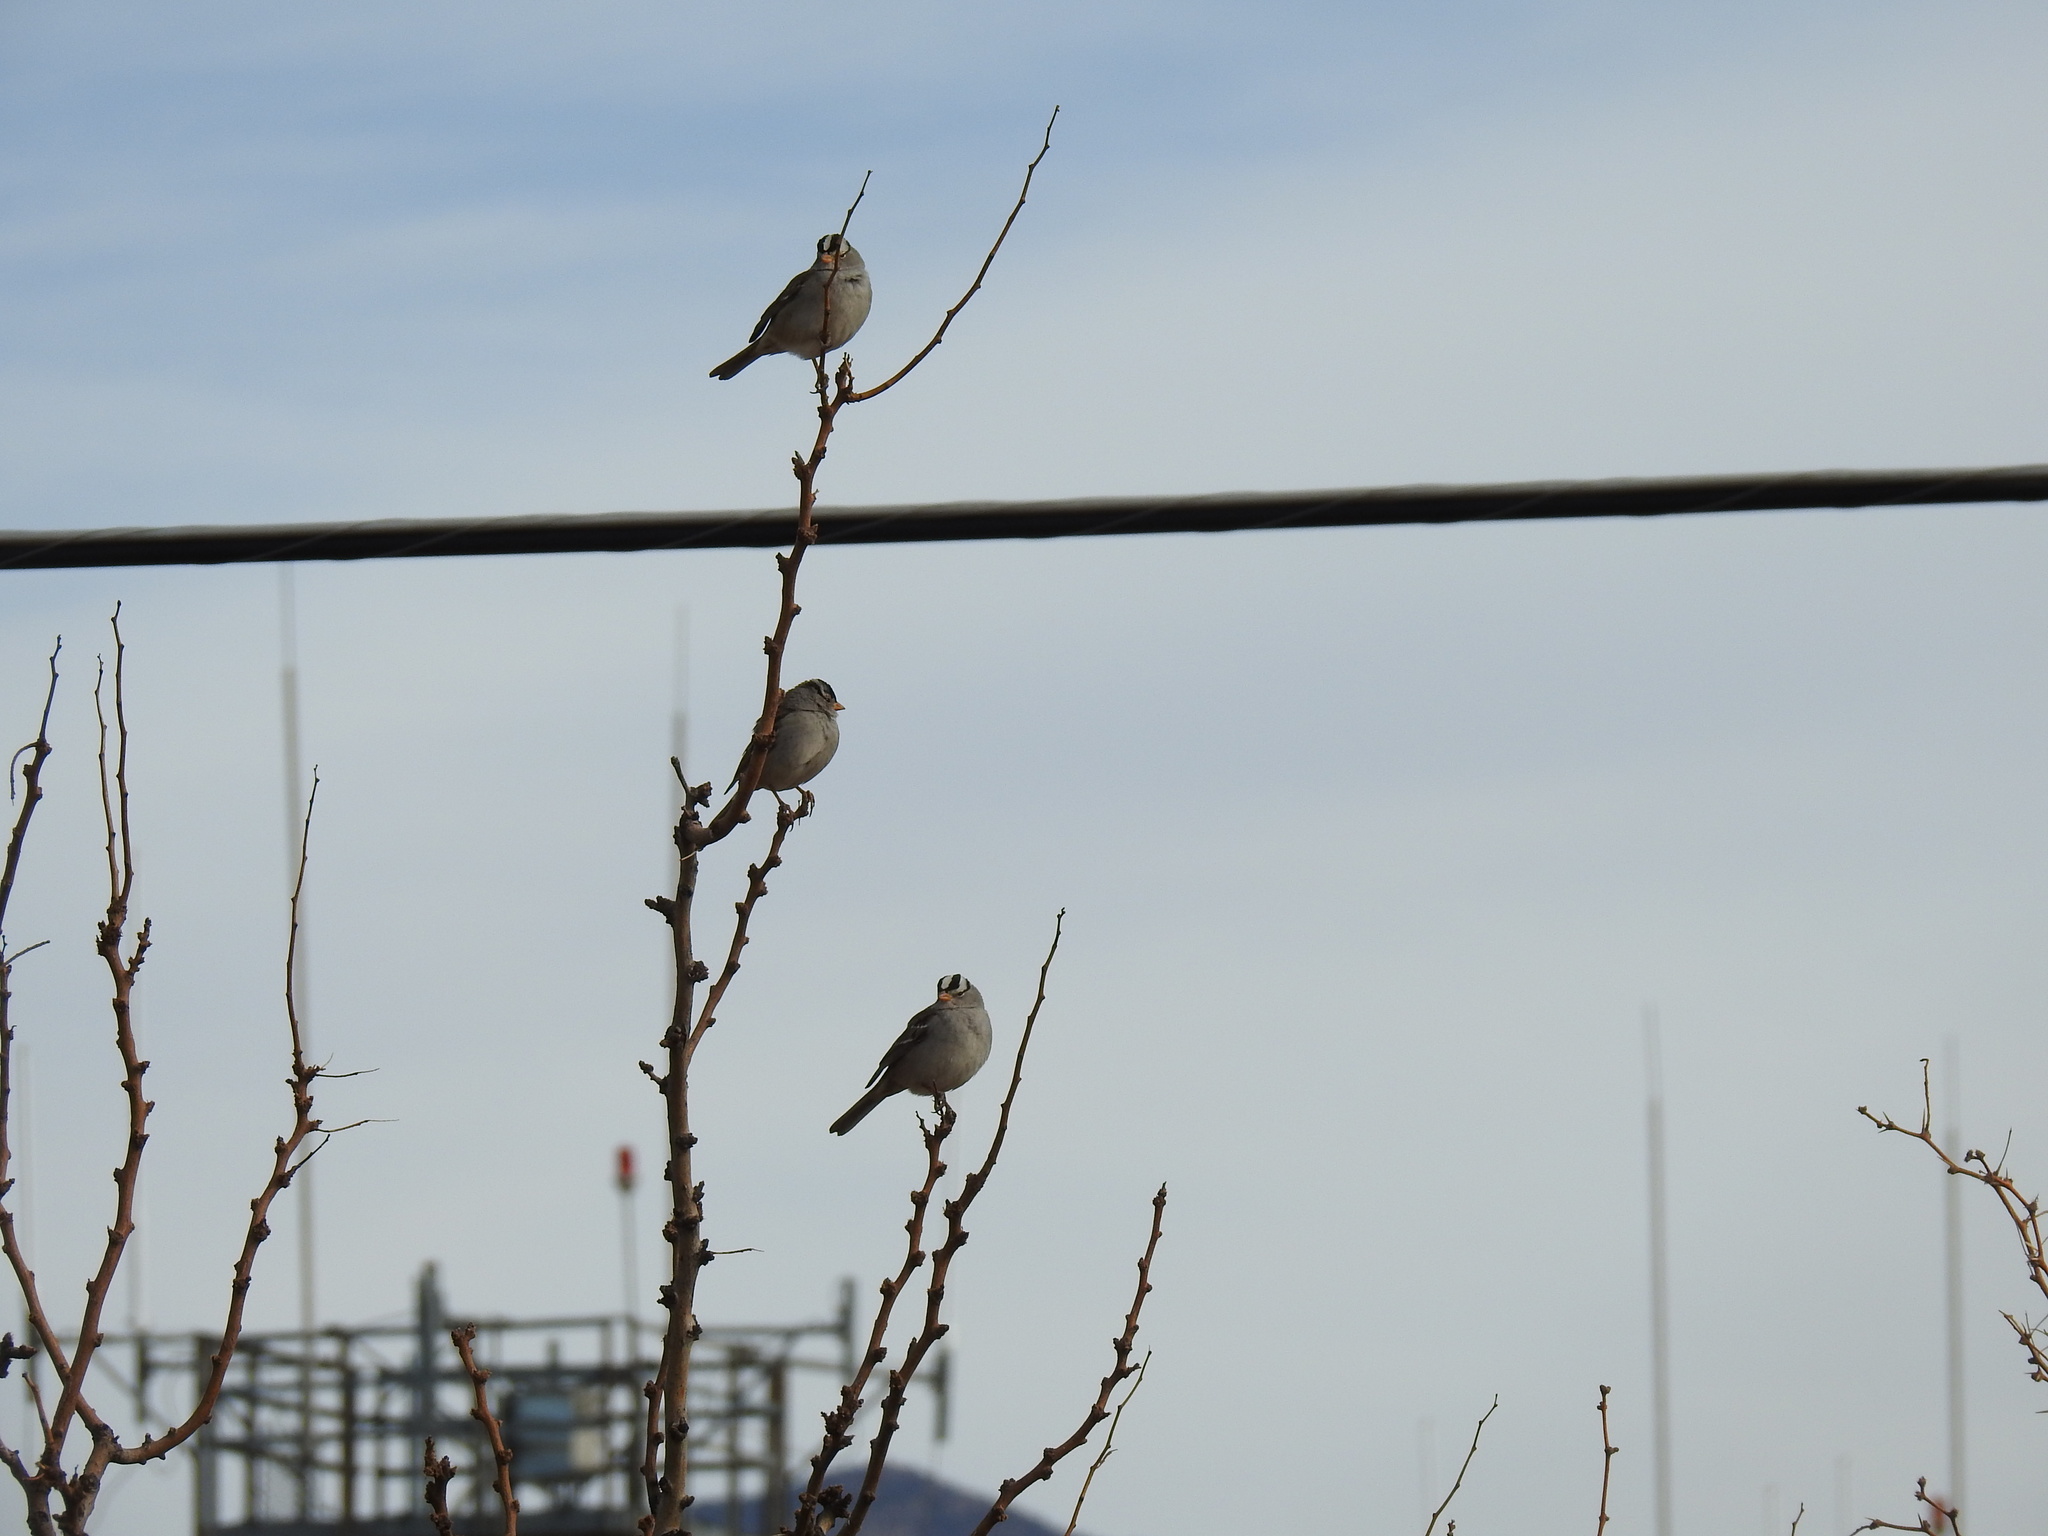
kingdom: Animalia
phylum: Chordata
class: Aves
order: Passeriformes
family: Passerellidae
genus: Zonotrichia
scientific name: Zonotrichia leucophrys
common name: White-crowned sparrow
